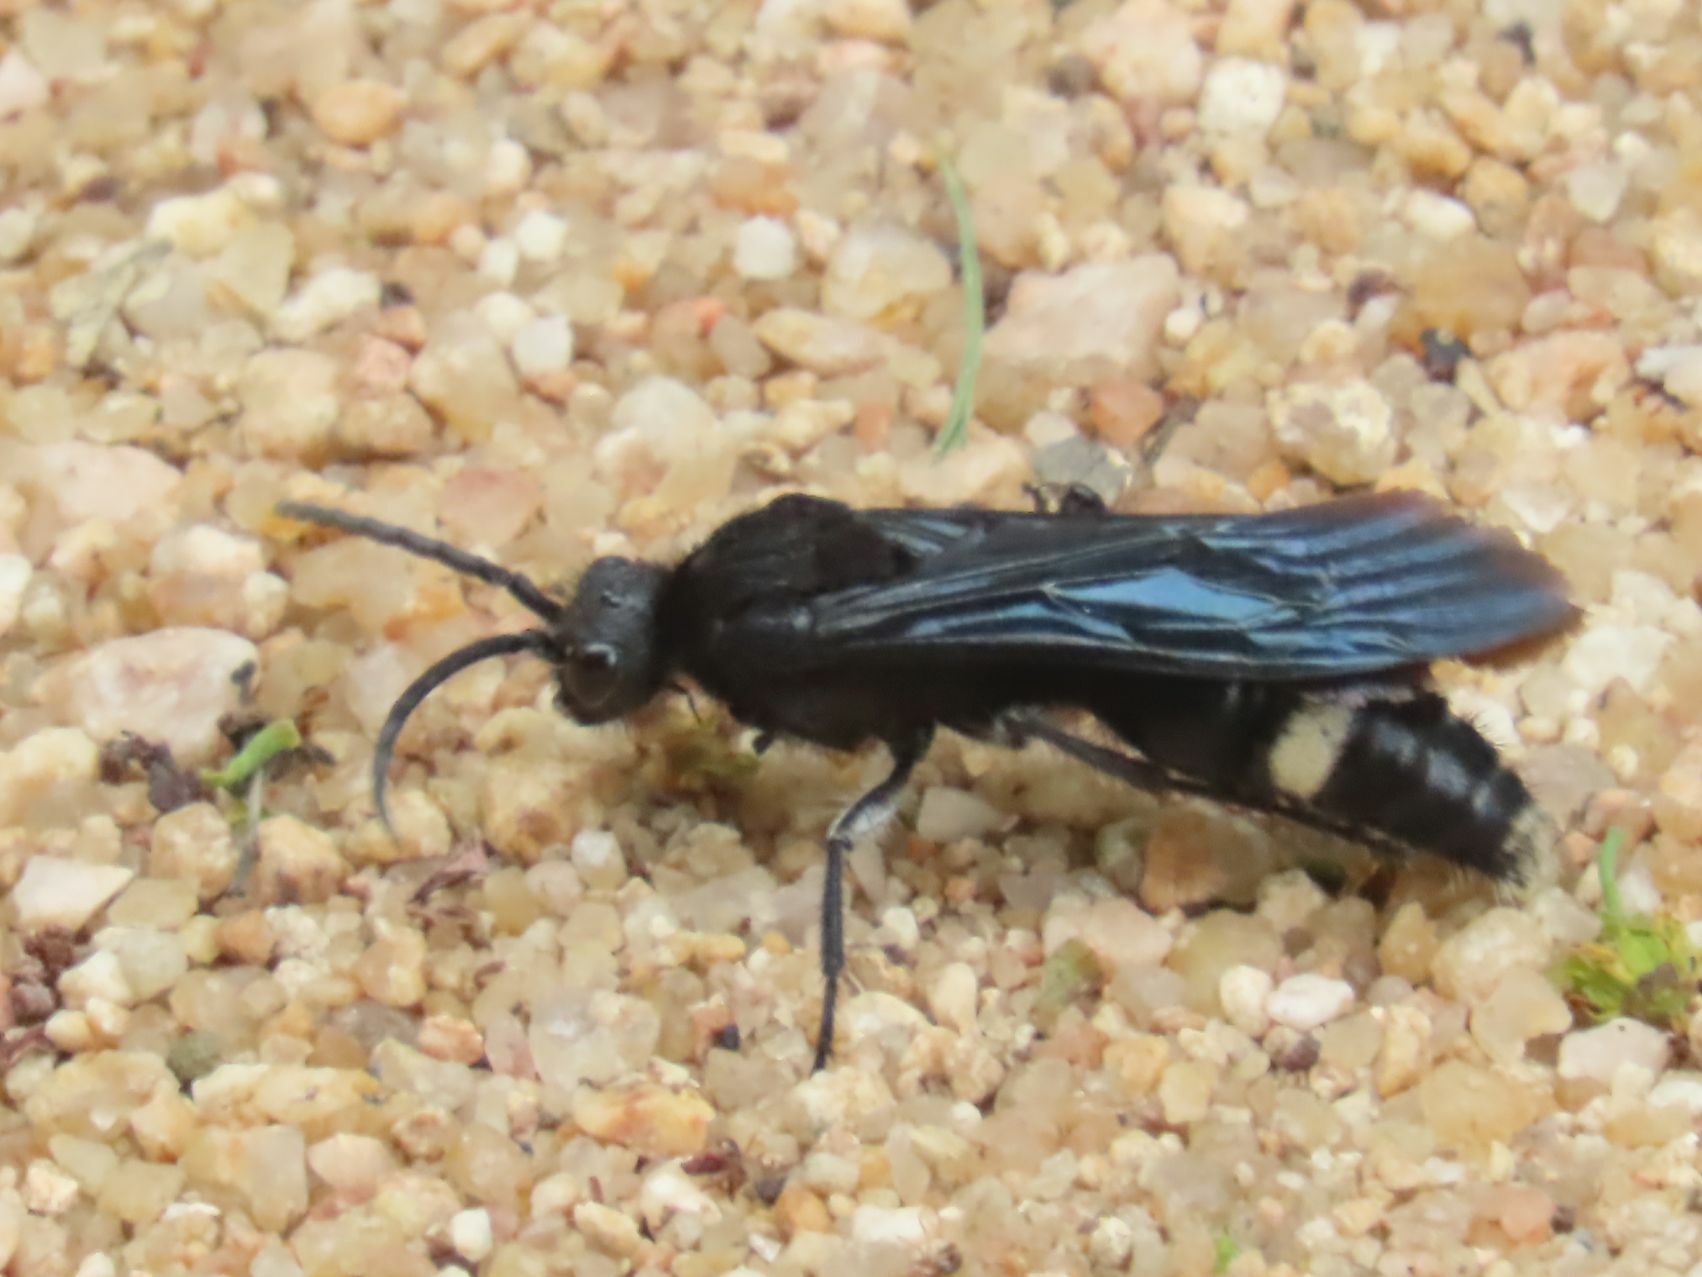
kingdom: Animalia
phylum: Arthropoda
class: Insecta
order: Hymenoptera
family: Mutillidae
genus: Pseudocephalotilla
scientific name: Pseudocephalotilla
